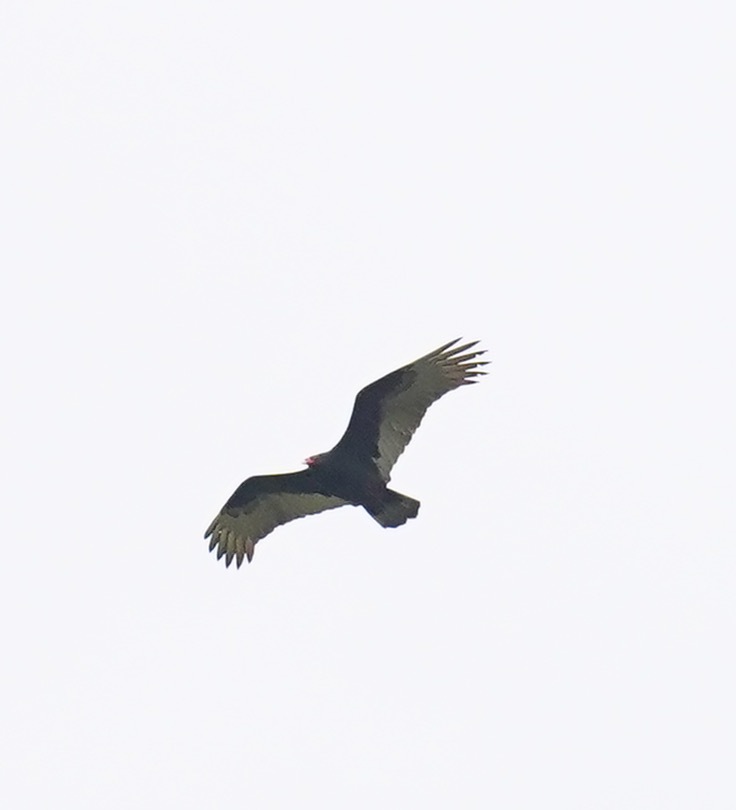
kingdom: Animalia
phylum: Chordata
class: Aves
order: Accipitriformes
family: Cathartidae
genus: Cathartes
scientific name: Cathartes aura
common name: Turkey vulture
